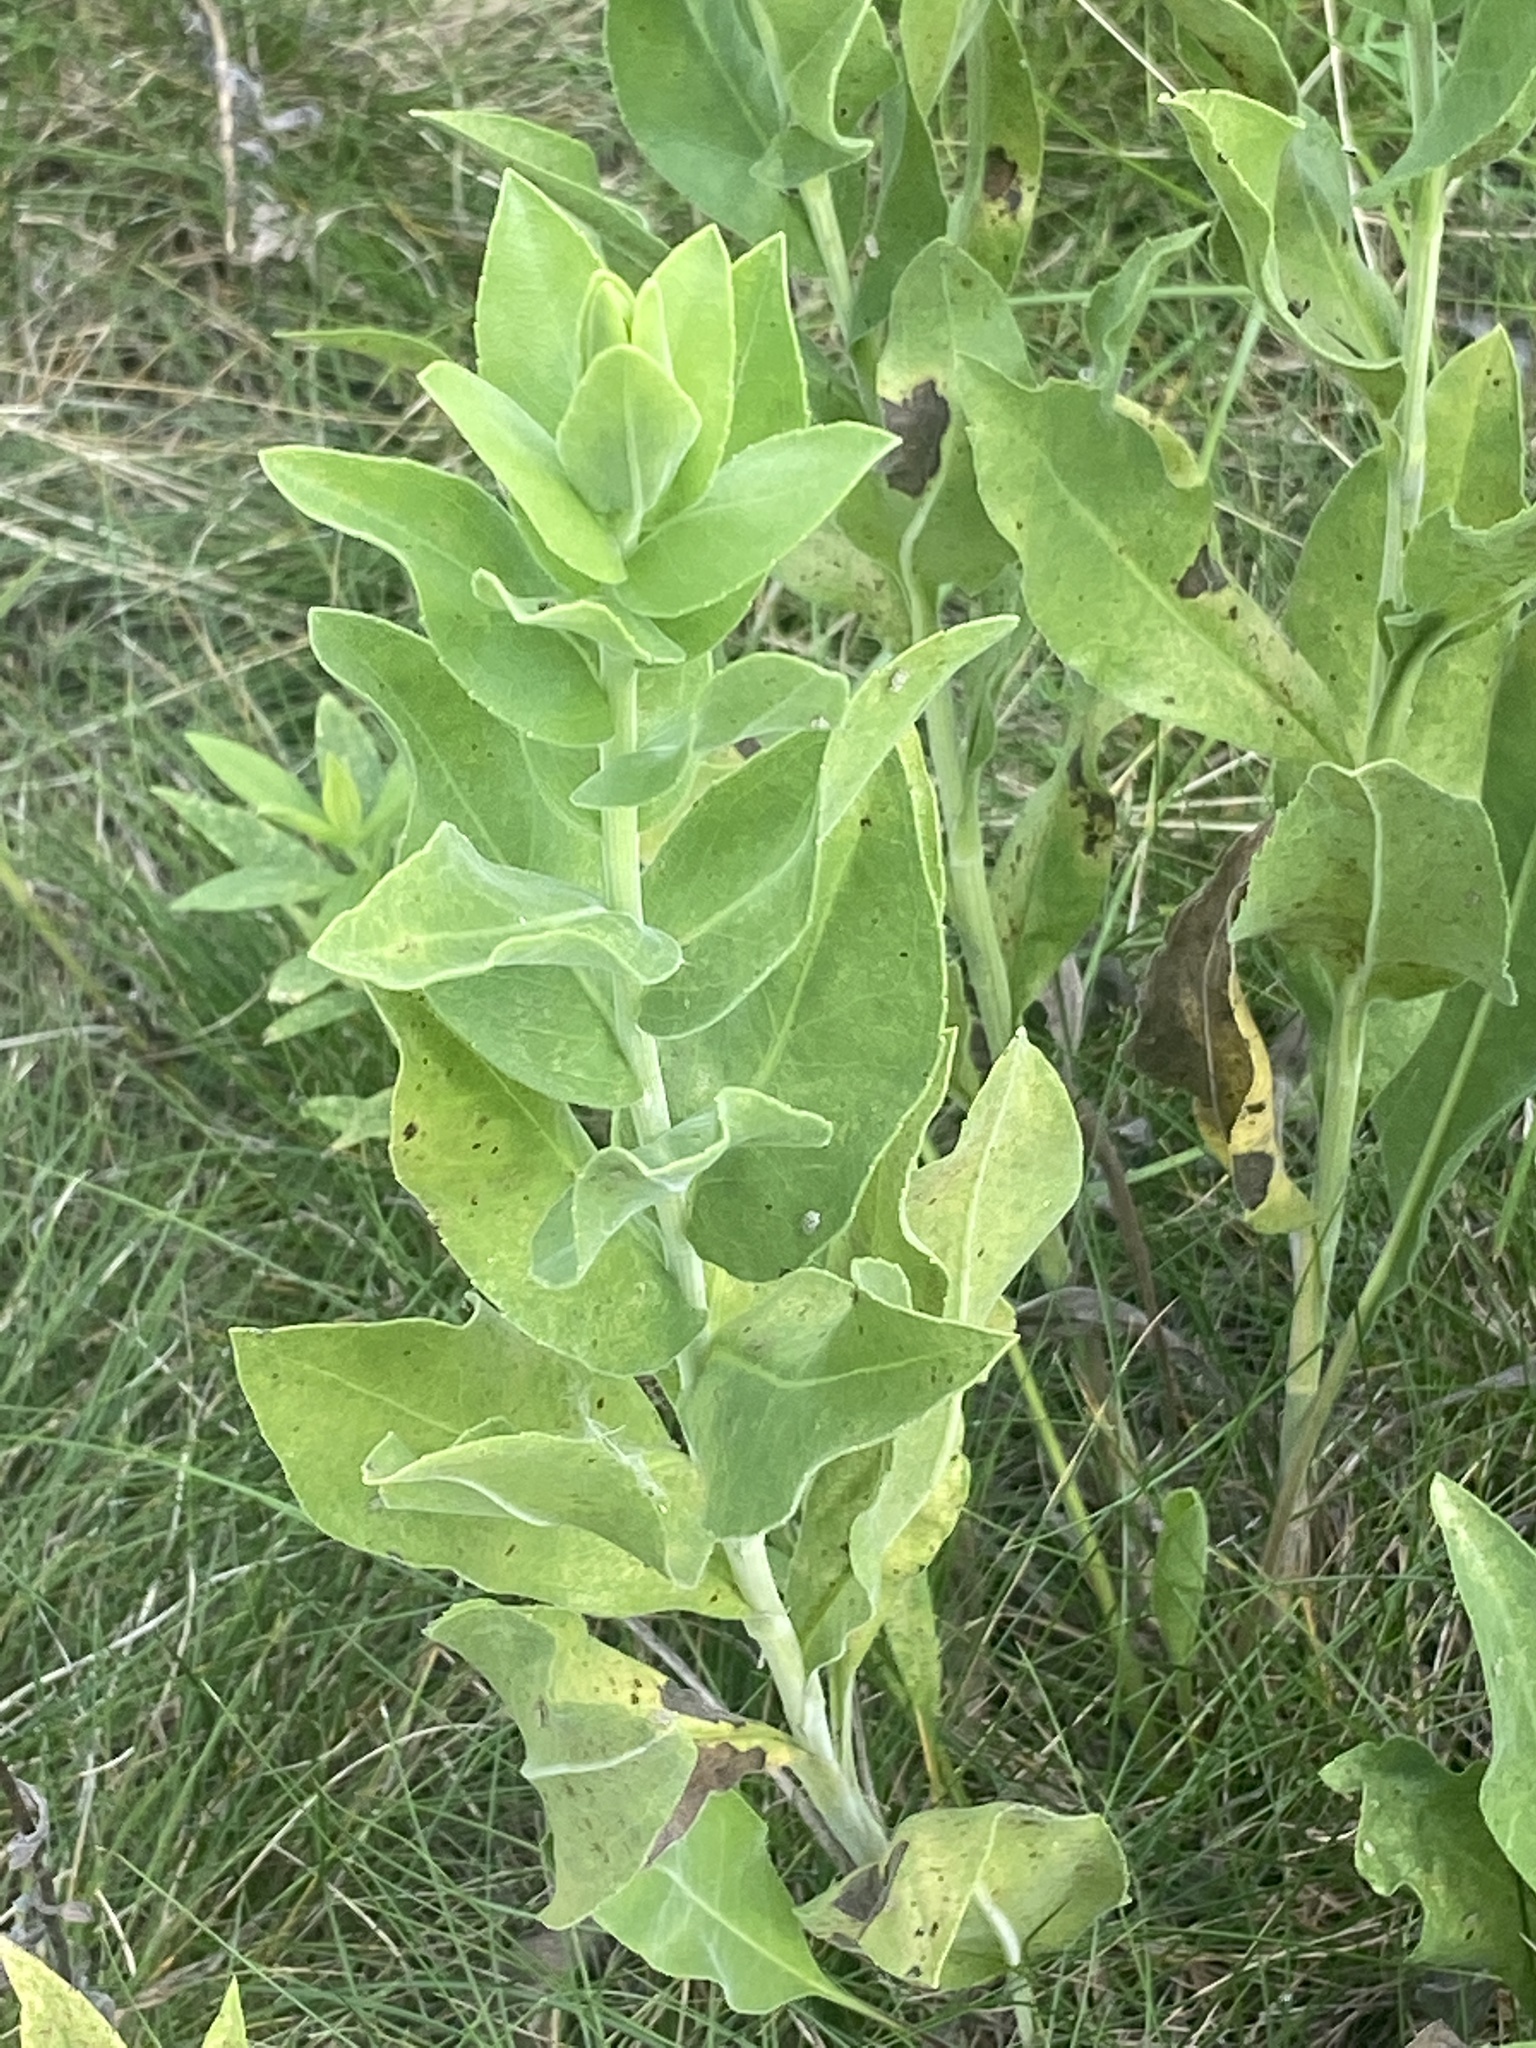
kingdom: Plantae
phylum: Tracheophyta
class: Magnoliopsida
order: Asterales
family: Asteraceae
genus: Solidago
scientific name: Solidago rigida
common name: Rigid goldenrod
